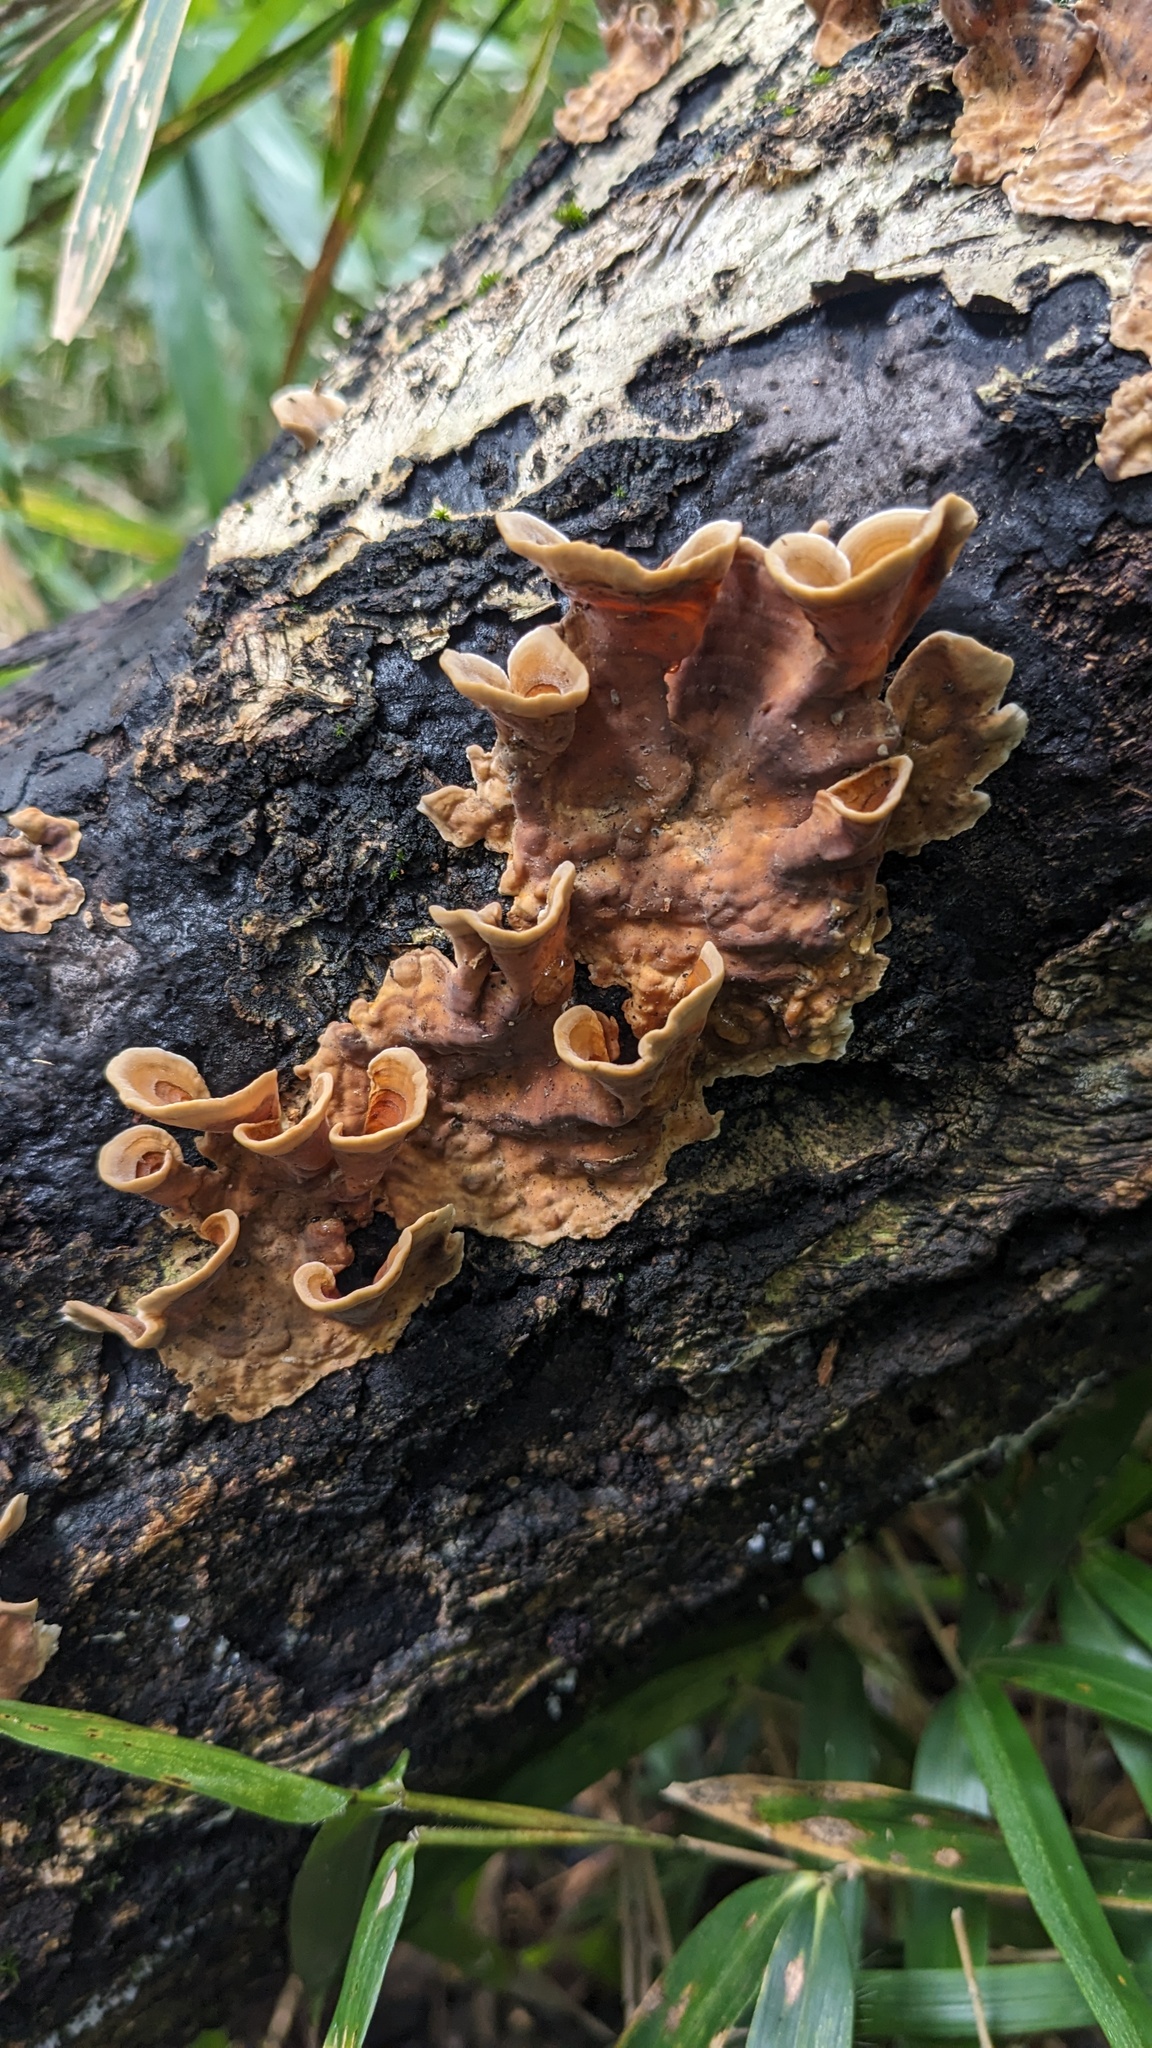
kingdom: Fungi
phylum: Basidiomycota
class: Agaricomycetes
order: Russulales
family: Stereaceae
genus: Stereum
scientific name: Stereum ostrea
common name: False turkeytail
